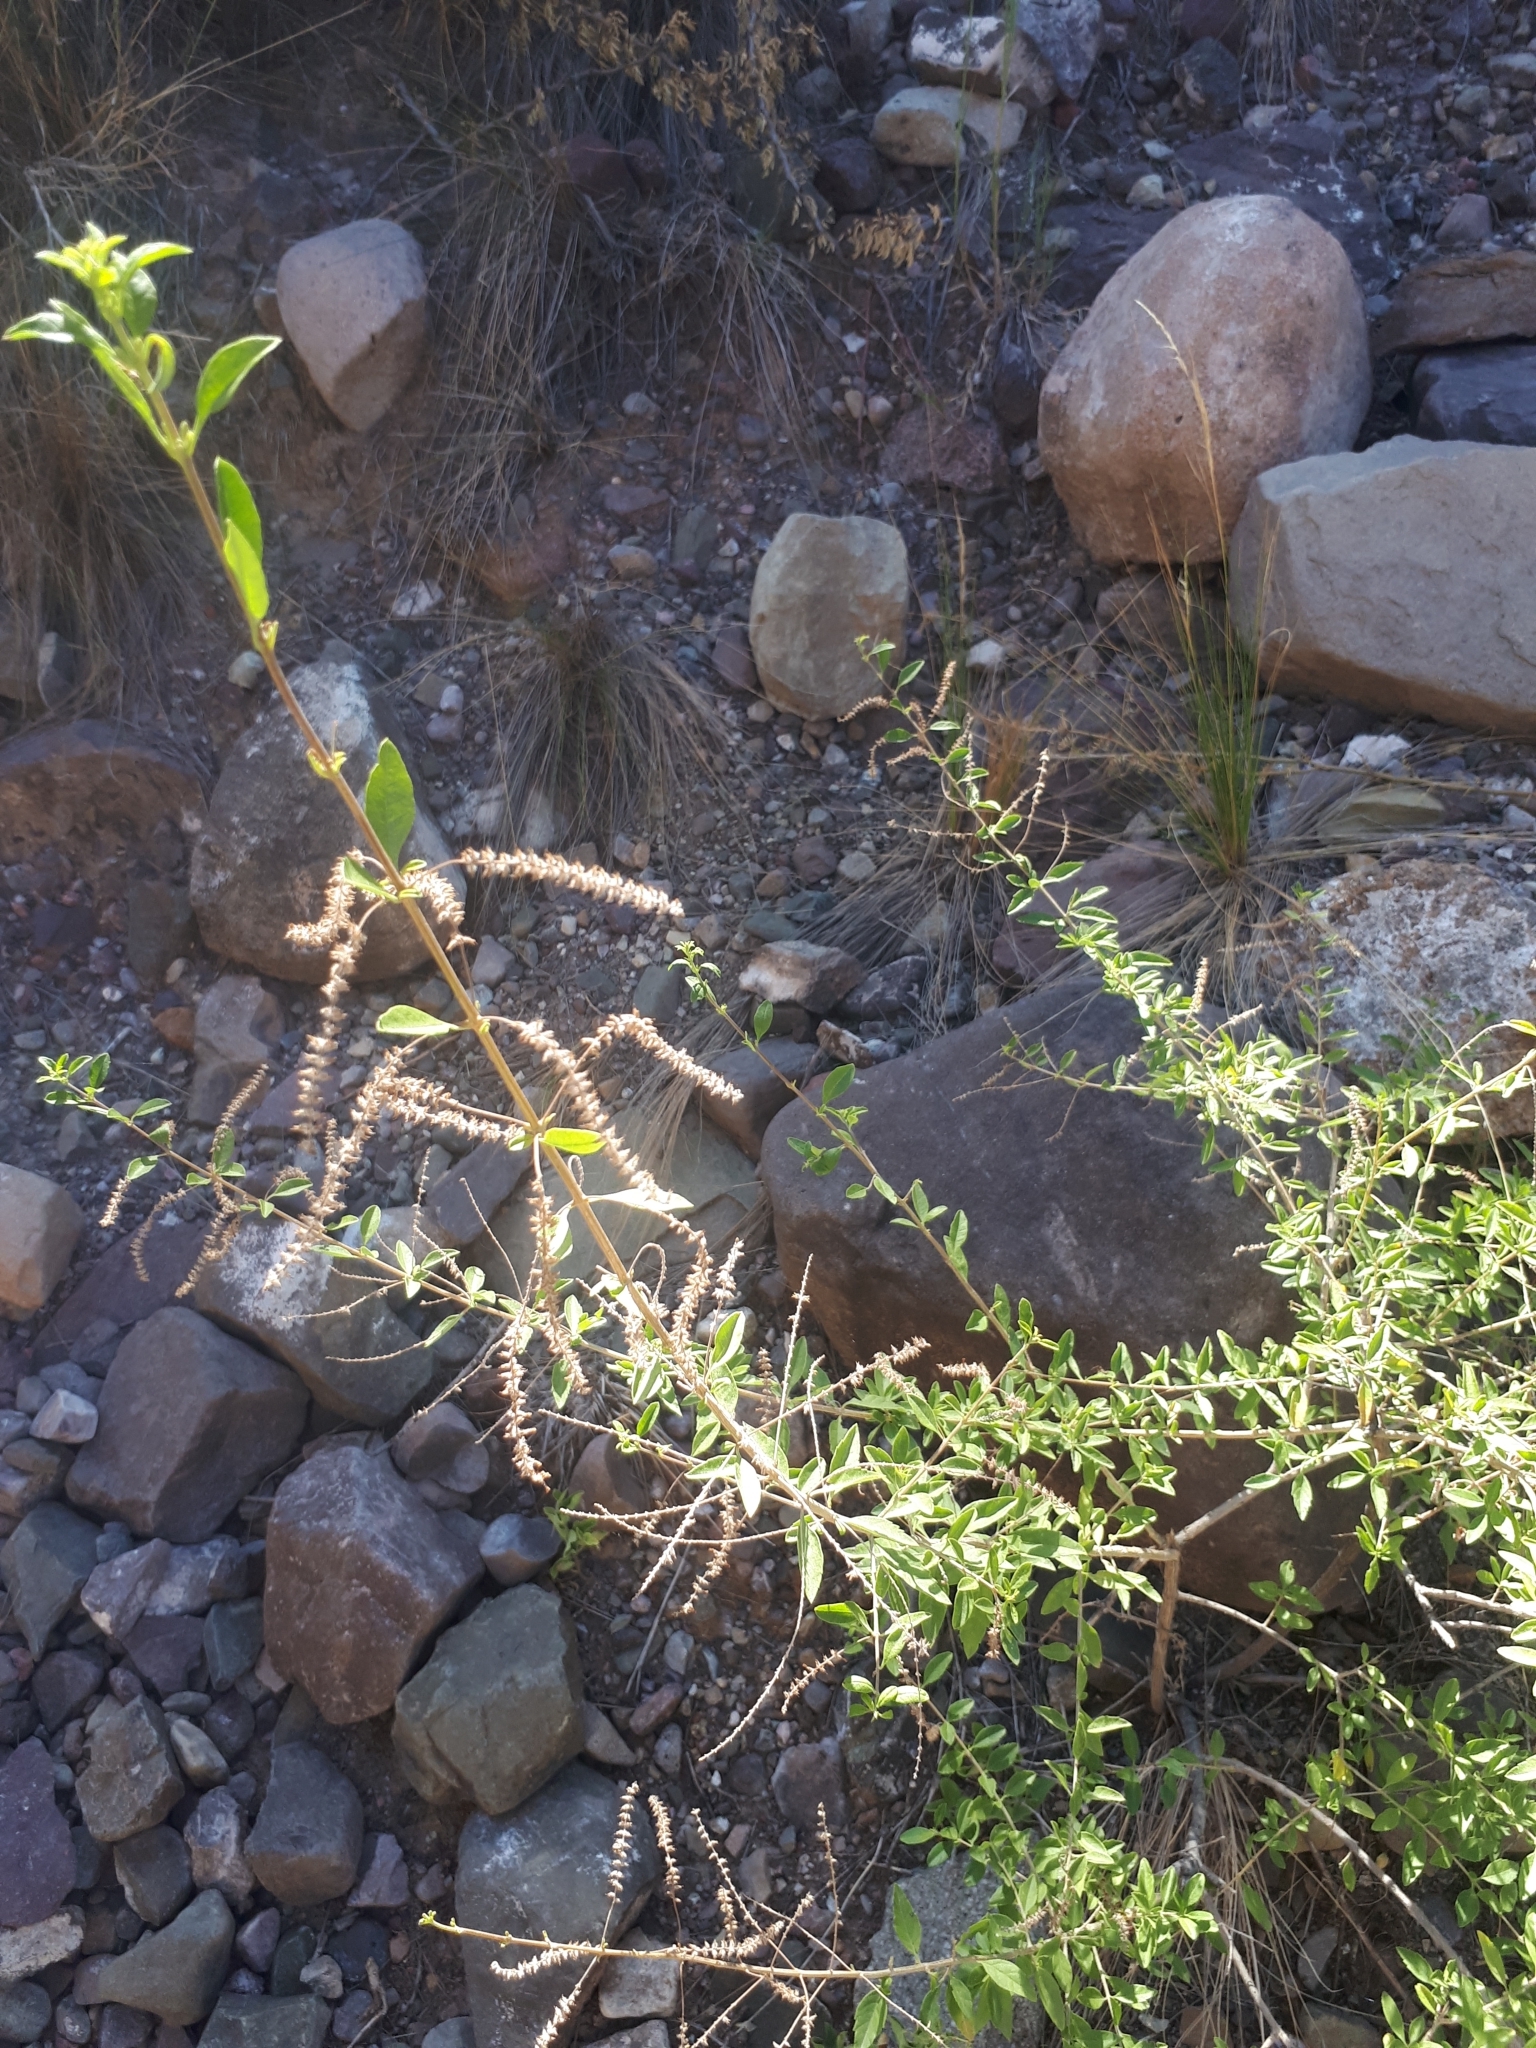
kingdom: Plantae
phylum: Tracheophyta
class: Magnoliopsida
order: Lamiales
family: Verbenaceae
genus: Aloysia
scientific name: Aloysia gratissima
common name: Common bee-brush
